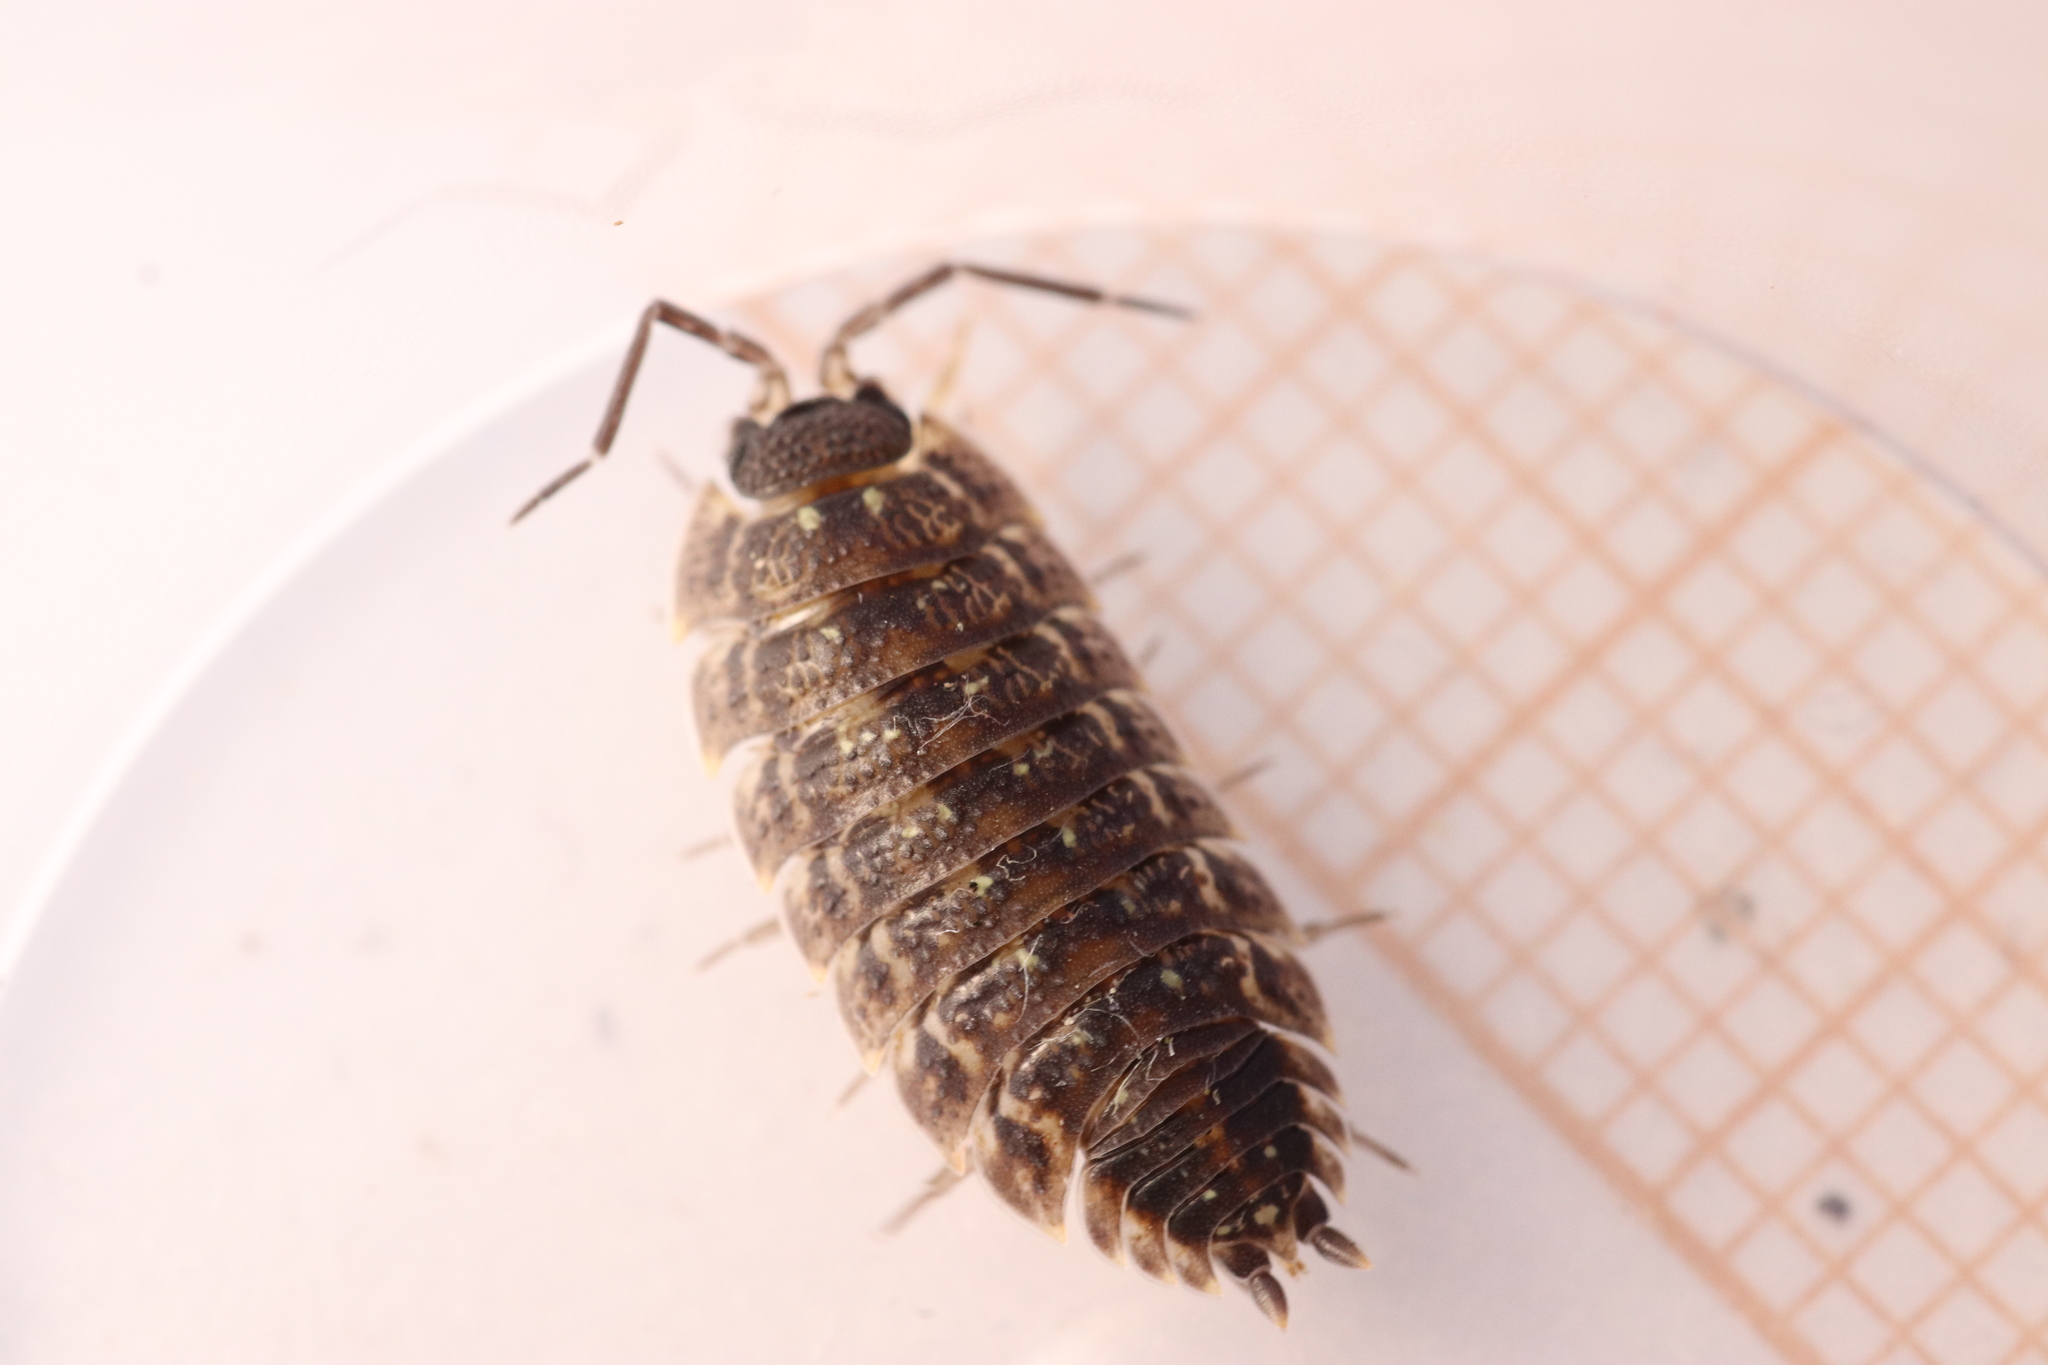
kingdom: Animalia
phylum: Arthropoda
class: Malacostraca
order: Isopoda
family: Porcellionidae
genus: Porcellio
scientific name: Porcellio spinicornis
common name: Painted woodlouse
